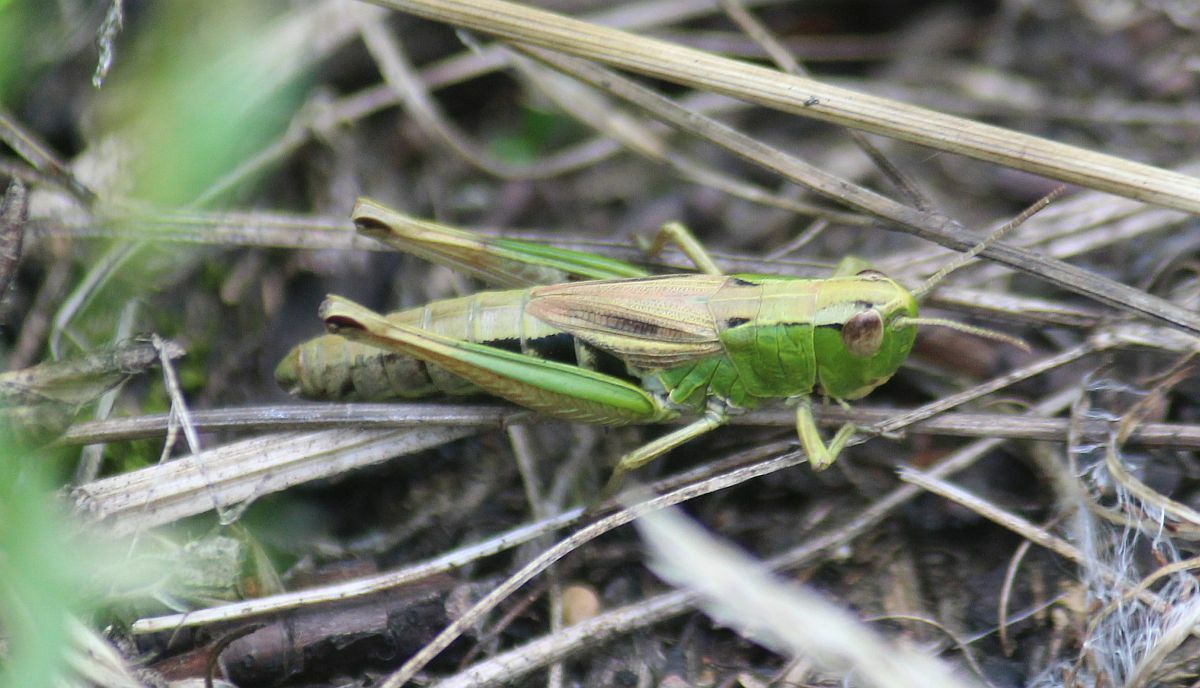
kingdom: Animalia
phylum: Arthropoda
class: Insecta
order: Orthoptera
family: Acrididae
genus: Pseudochorthippus
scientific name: Pseudochorthippus parallelus
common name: Meadow grasshopper
